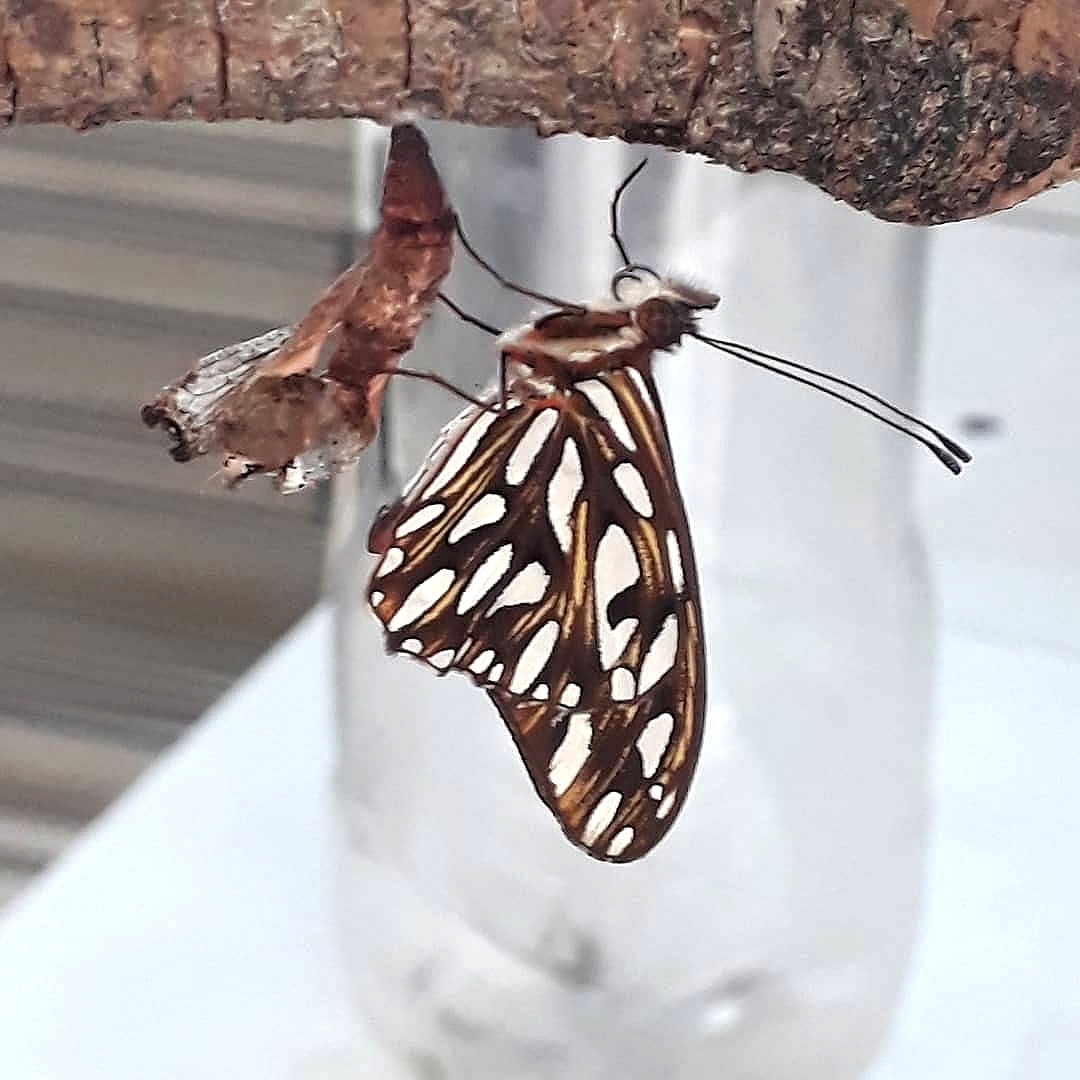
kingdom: Animalia
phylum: Arthropoda
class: Insecta
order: Lepidoptera
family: Nymphalidae
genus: Dione
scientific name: Dione vanillae
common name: Gulf fritillary
